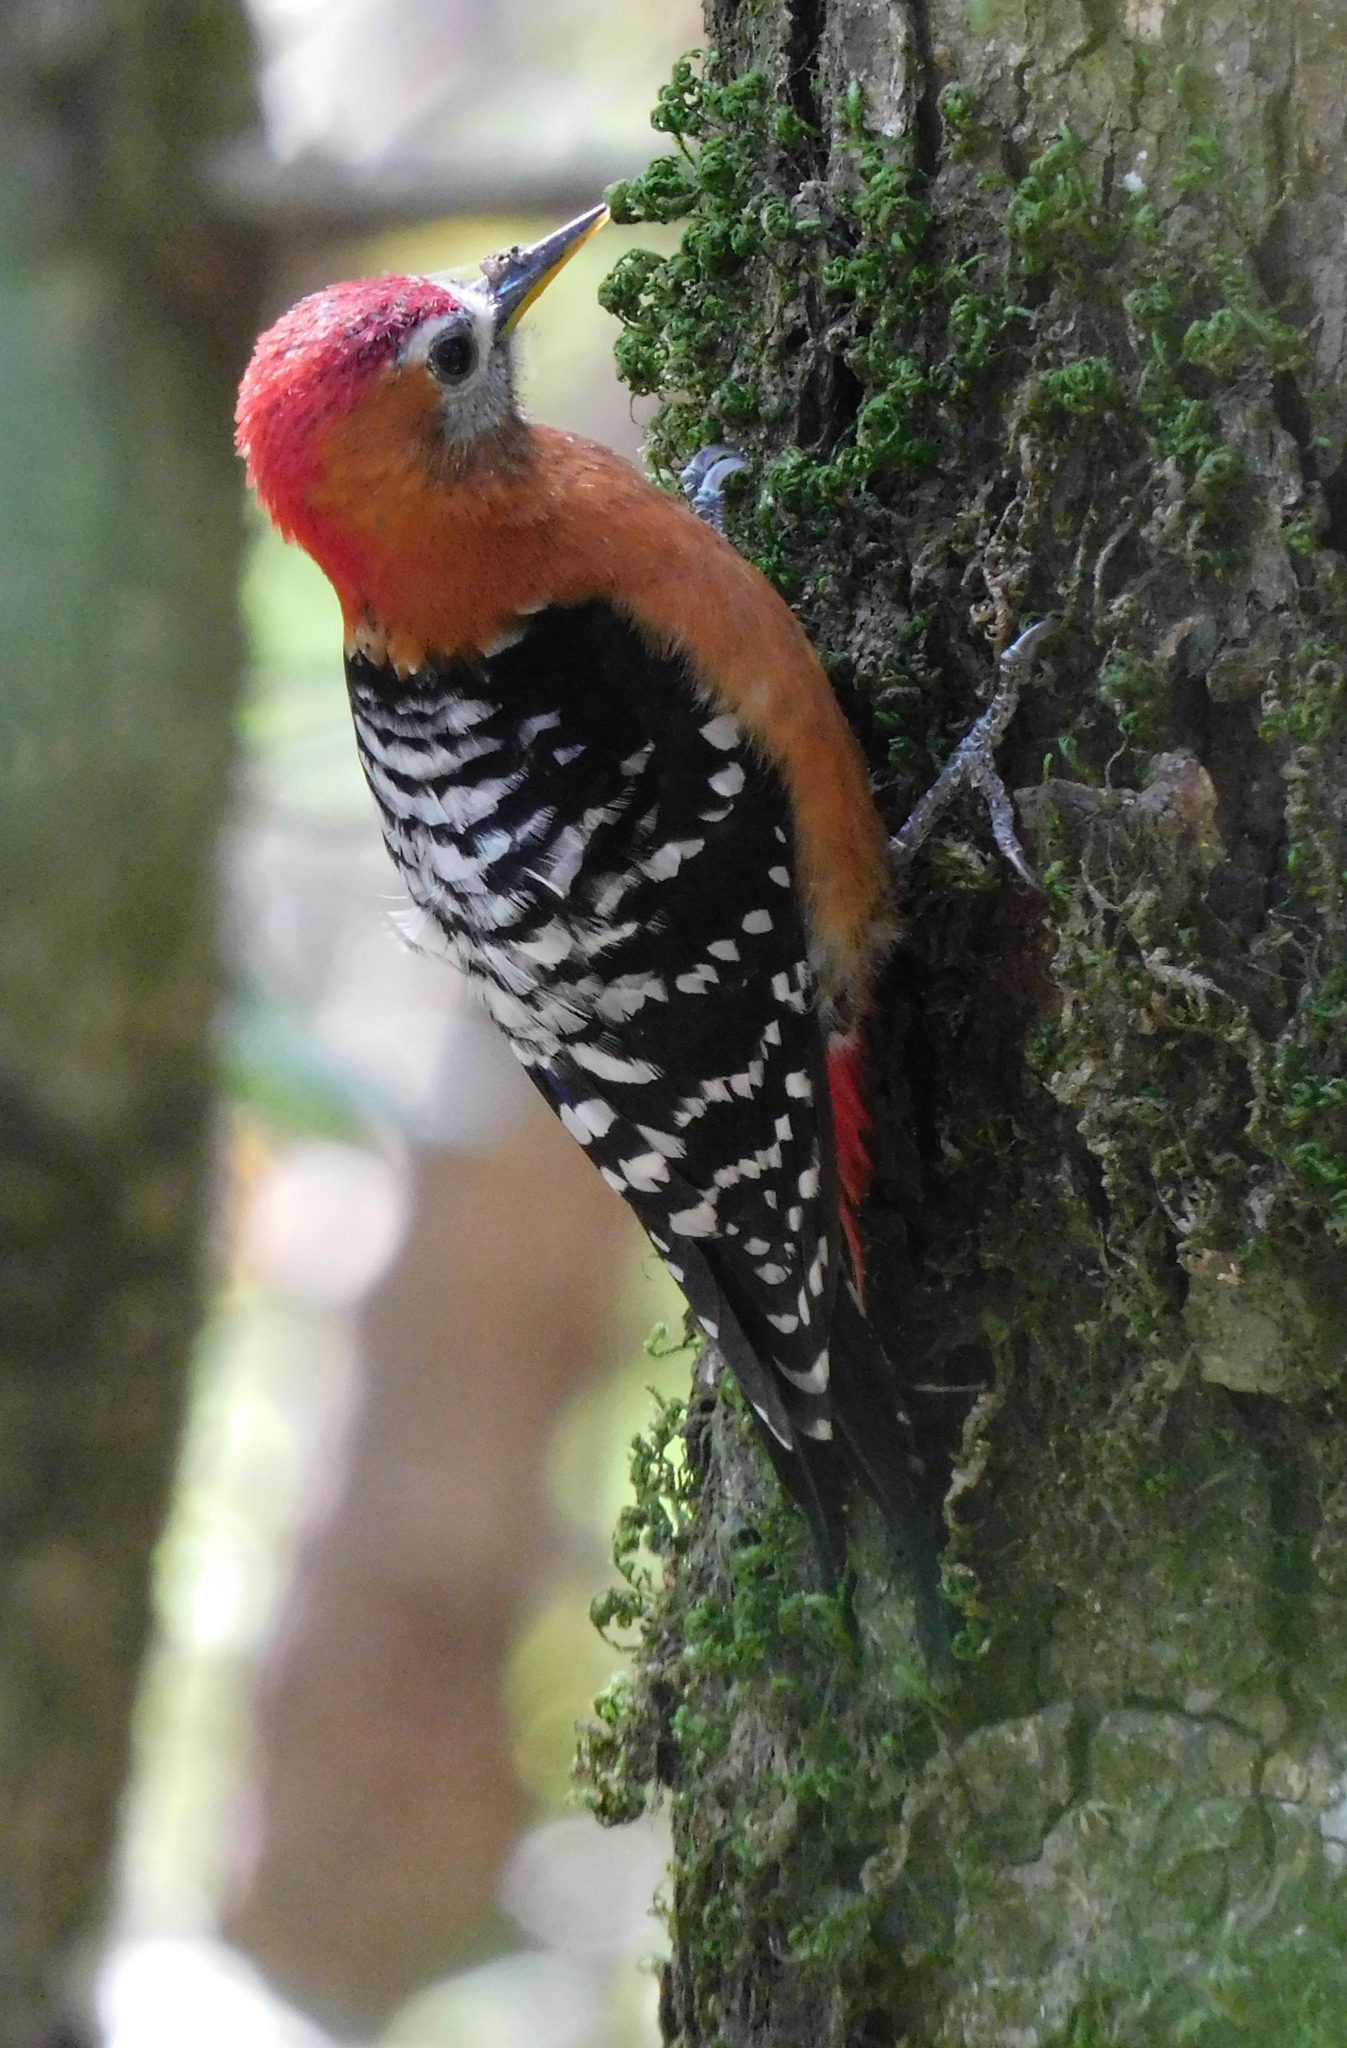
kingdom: Animalia
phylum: Chordata
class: Aves
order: Piciformes
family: Picidae
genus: Dendrocopos
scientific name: Dendrocopos hyperythrus
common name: Rufous-bellied woodpecker
